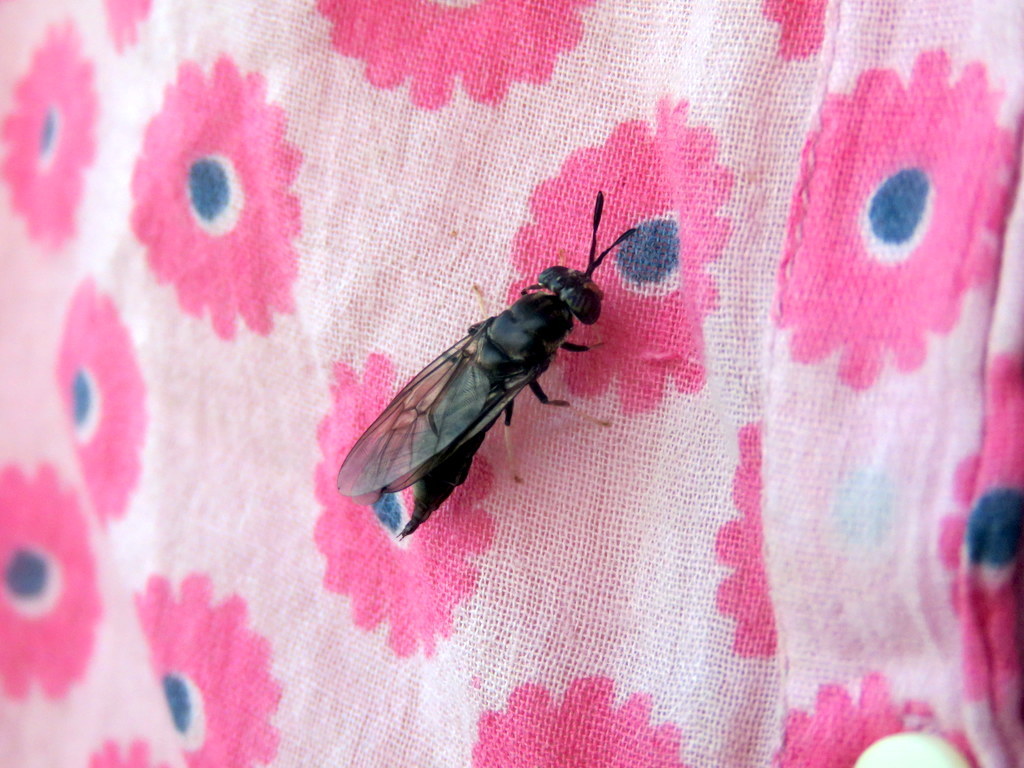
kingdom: Animalia
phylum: Arthropoda
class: Insecta
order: Diptera
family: Stratiomyidae
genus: Hermetia
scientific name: Hermetia illucens
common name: Black soldier fly
